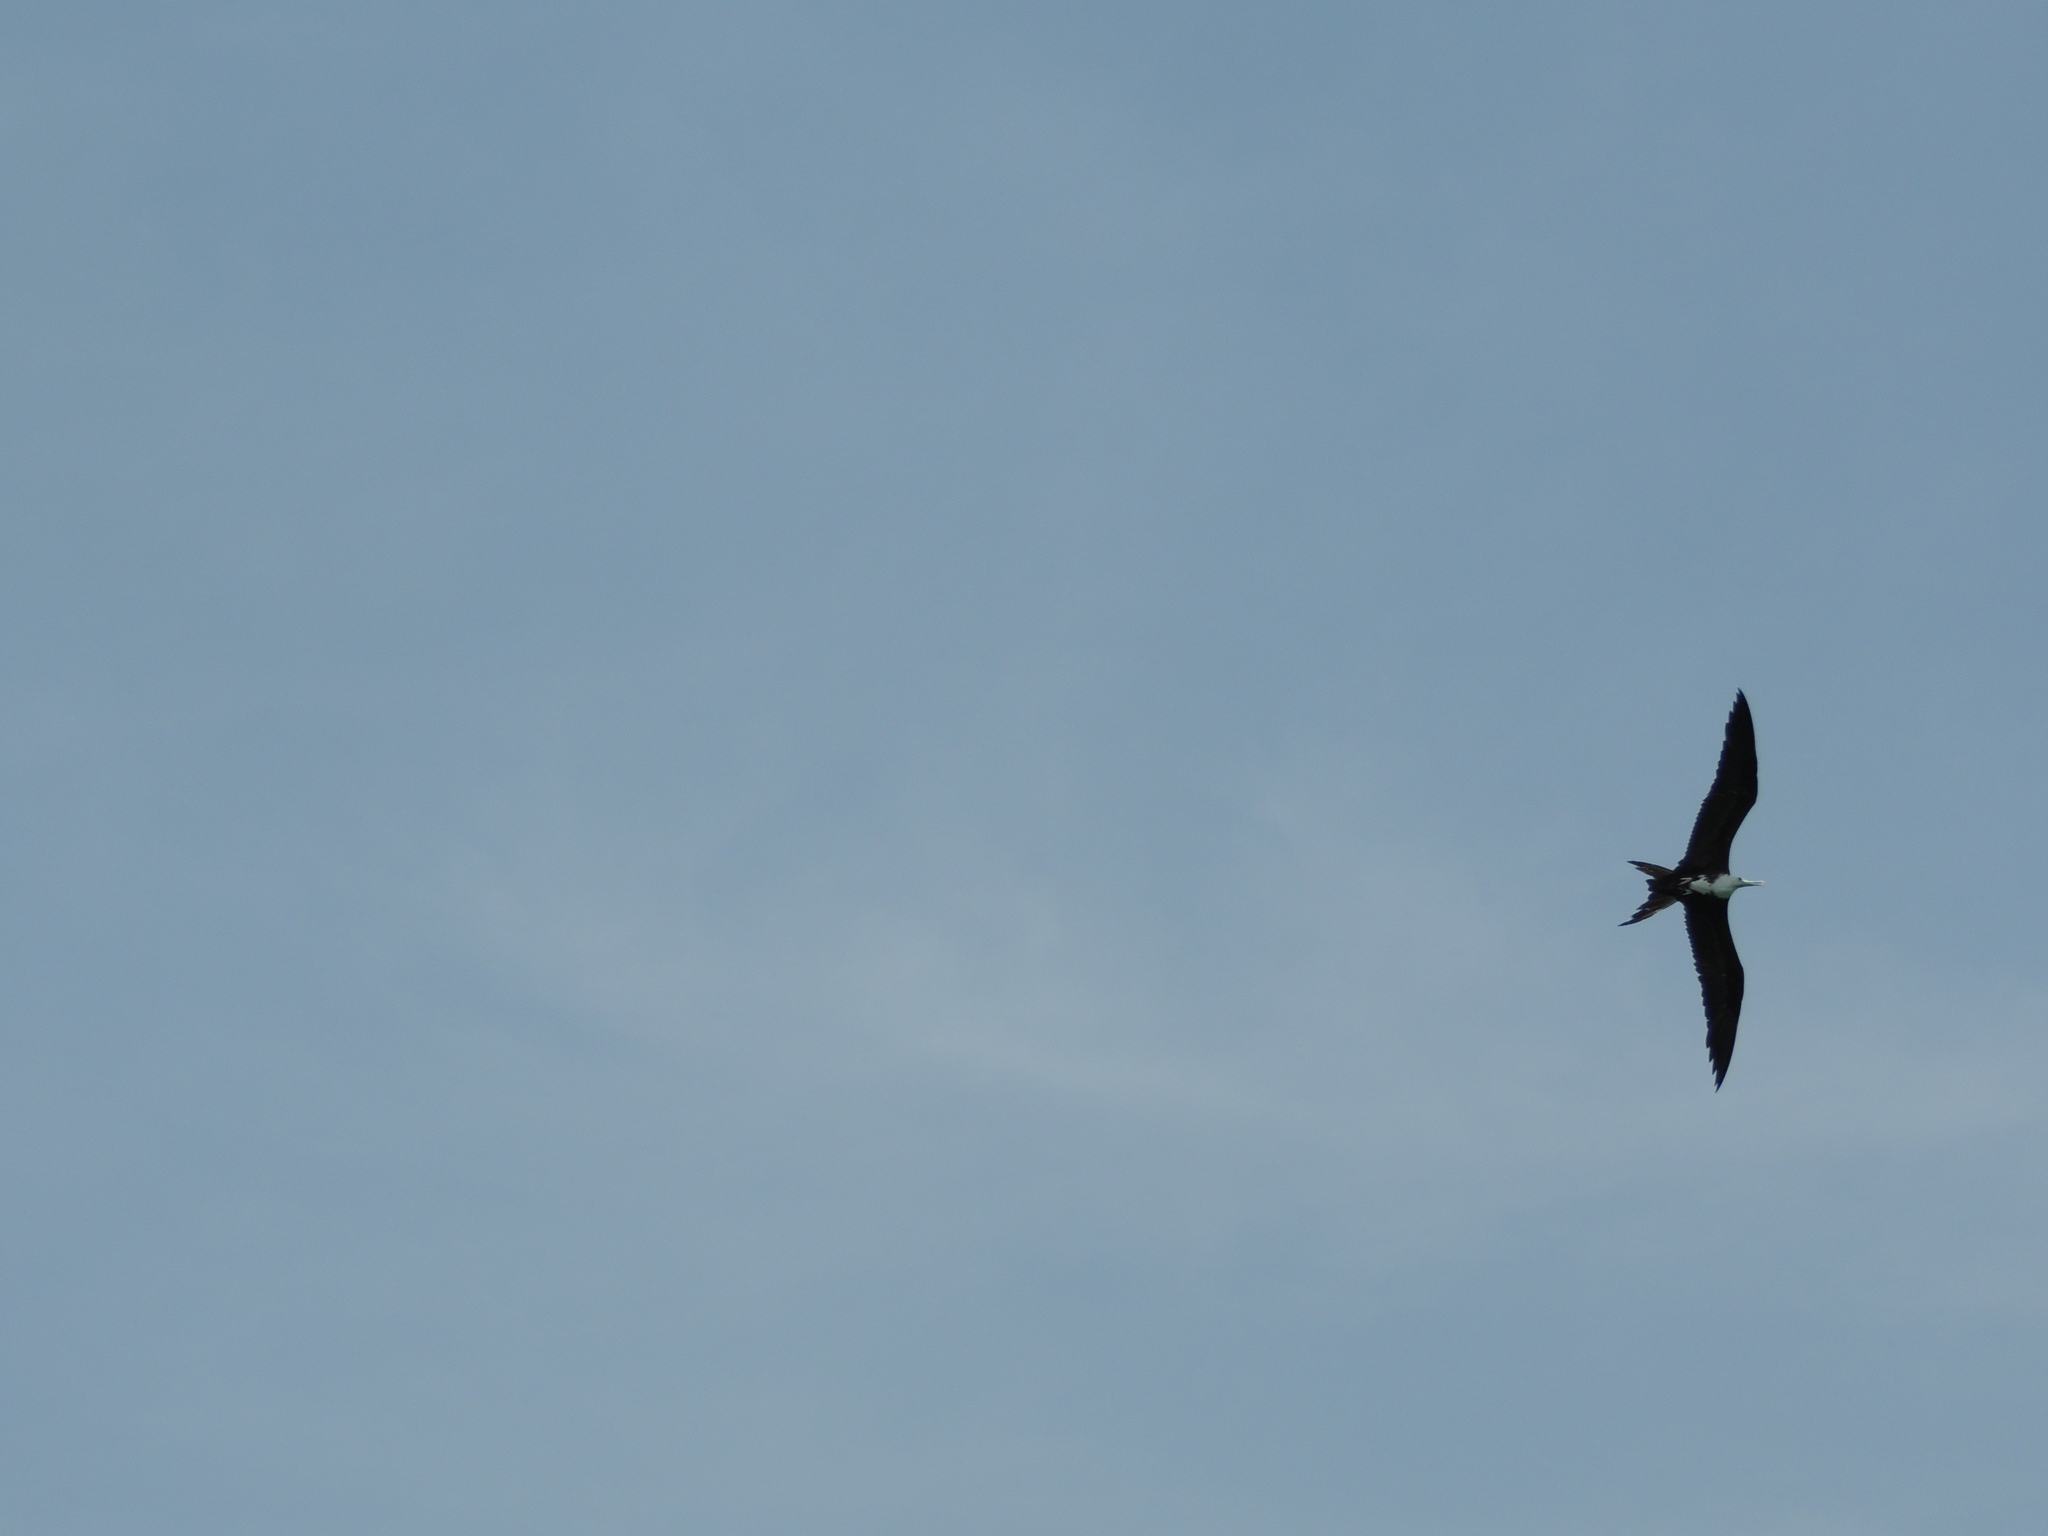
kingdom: Animalia
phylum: Chordata
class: Aves
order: Suliformes
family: Fregatidae
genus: Fregata
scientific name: Fregata magnificens
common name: Magnificent frigatebird
